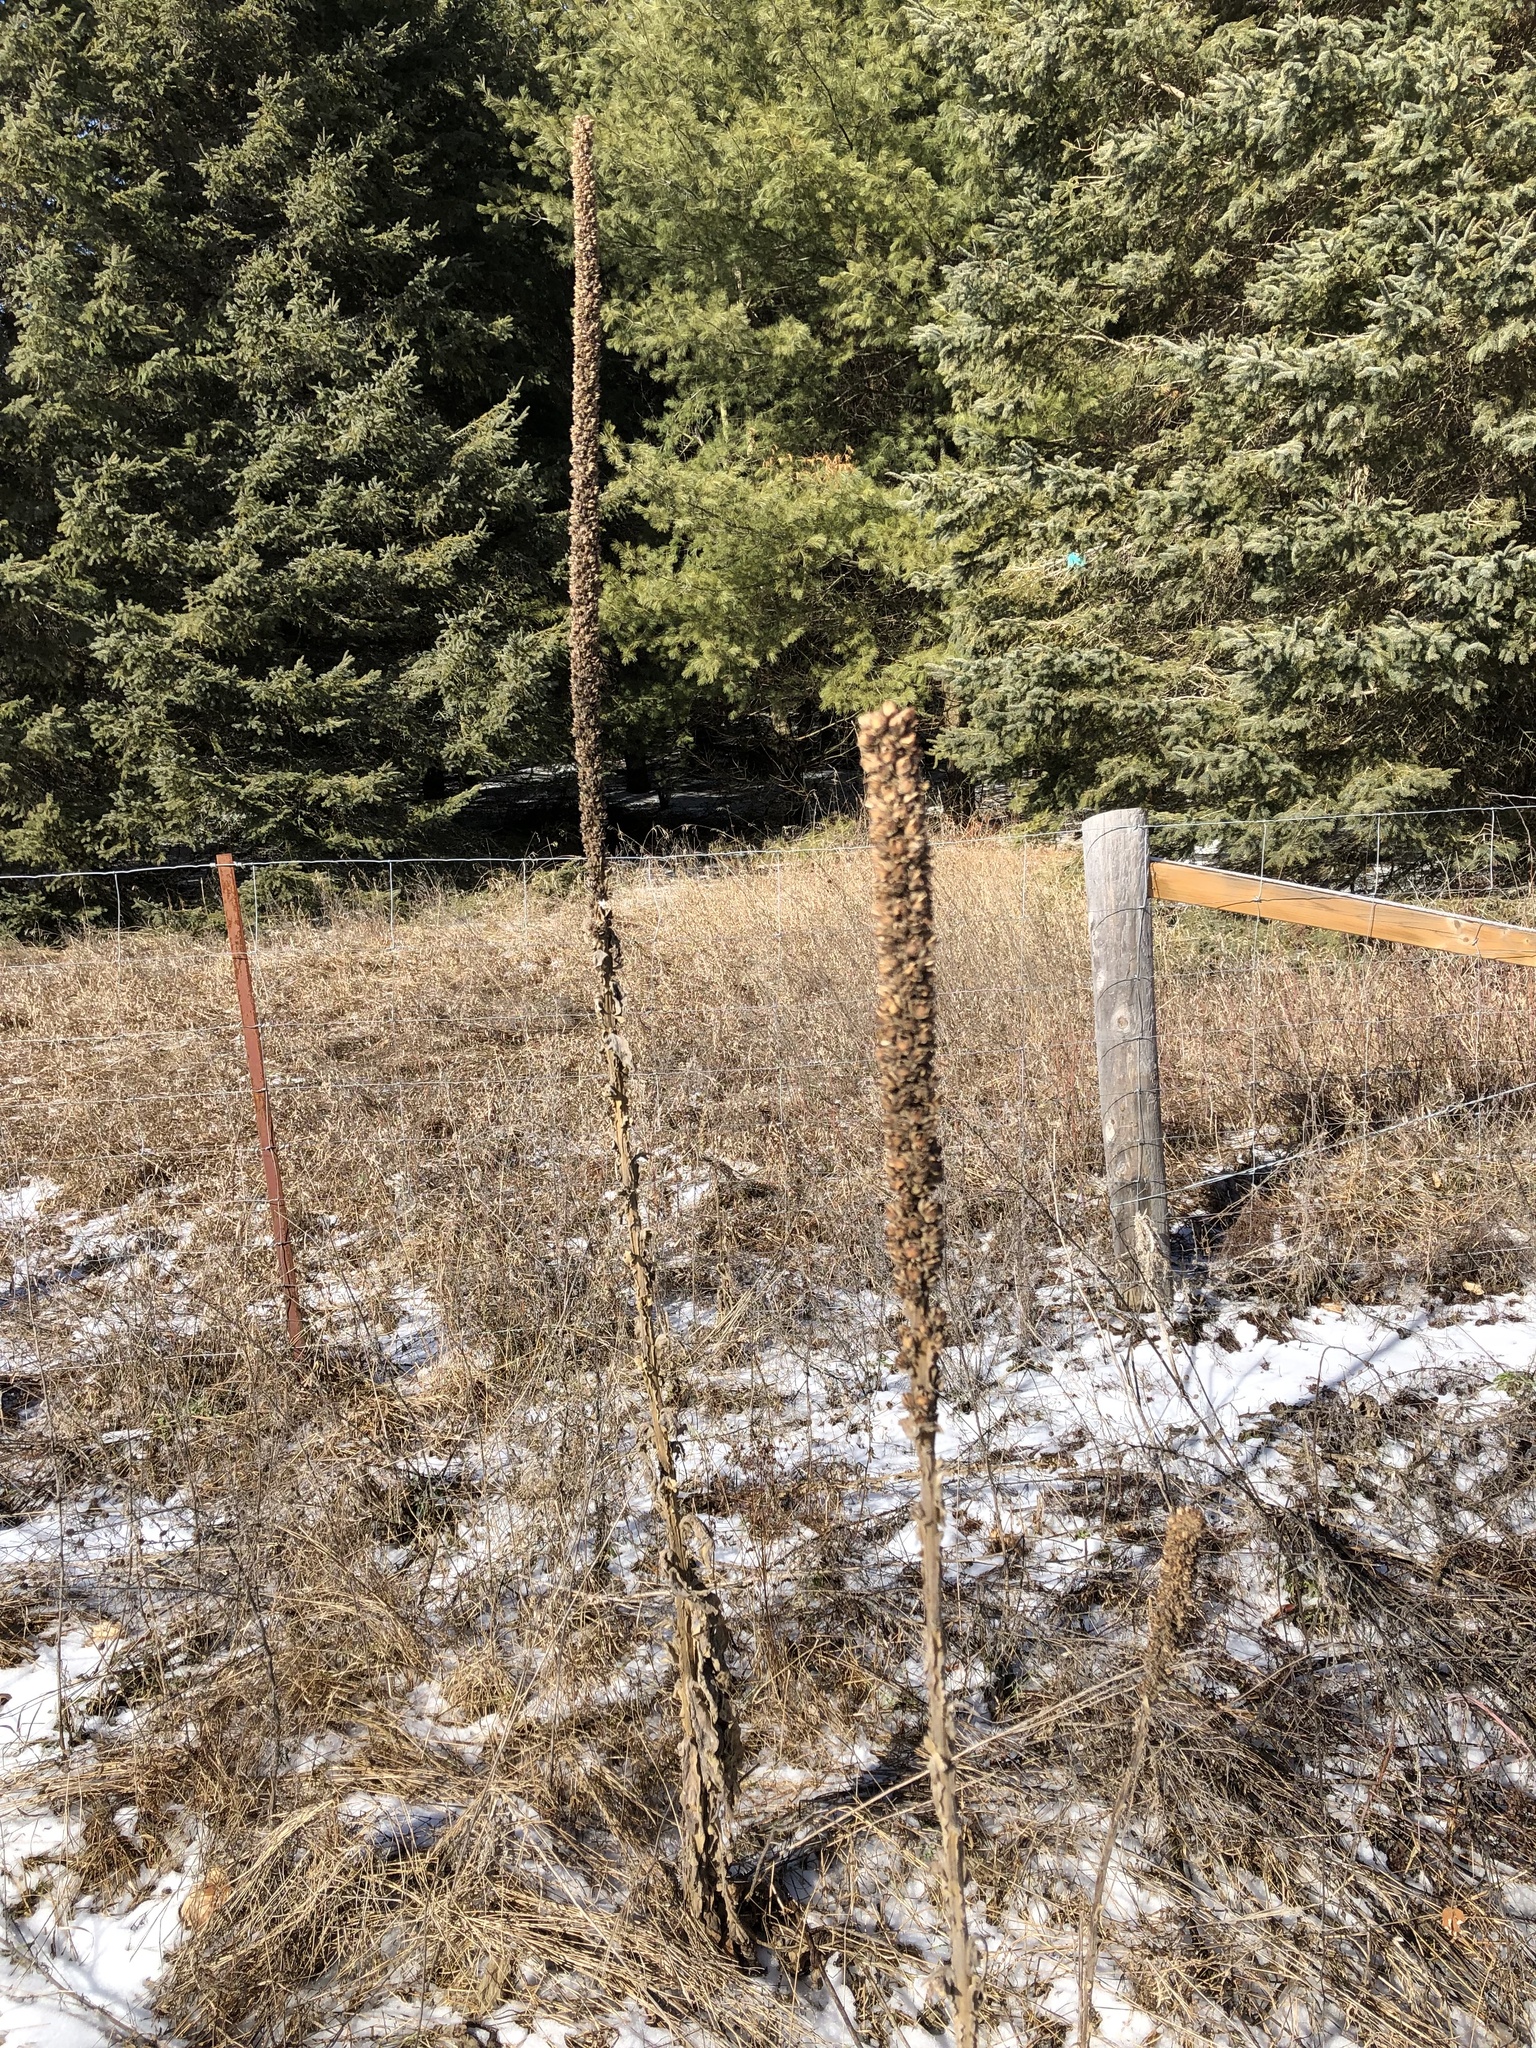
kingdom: Plantae
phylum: Tracheophyta
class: Magnoliopsida
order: Lamiales
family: Scrophulariaceae
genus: Verbascum
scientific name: Verbascum thapsus
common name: Common mullein
